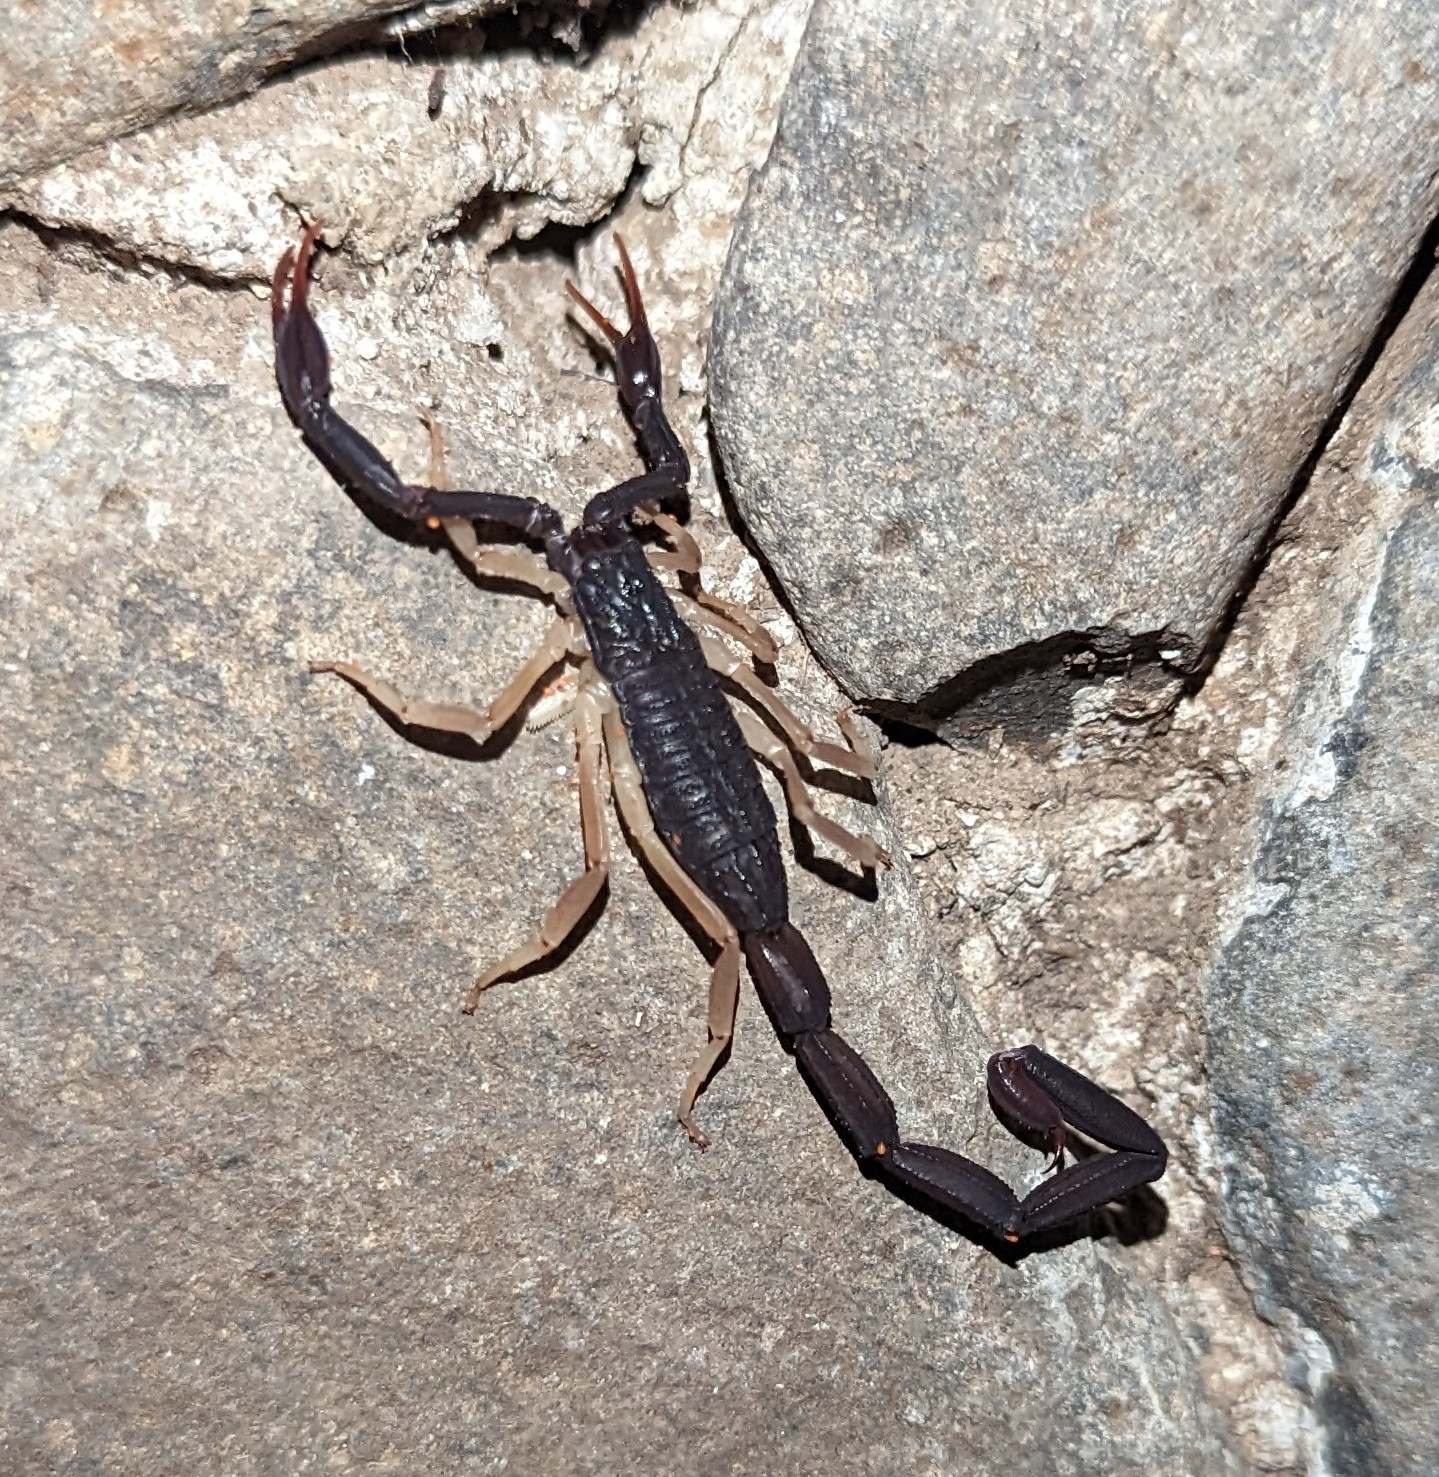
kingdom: Animalia
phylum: Arthropoda
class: Arachnida
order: Scorpiones
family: Buthidae
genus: Centruroides
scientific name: Centruroides gracilis
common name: Scorpions
